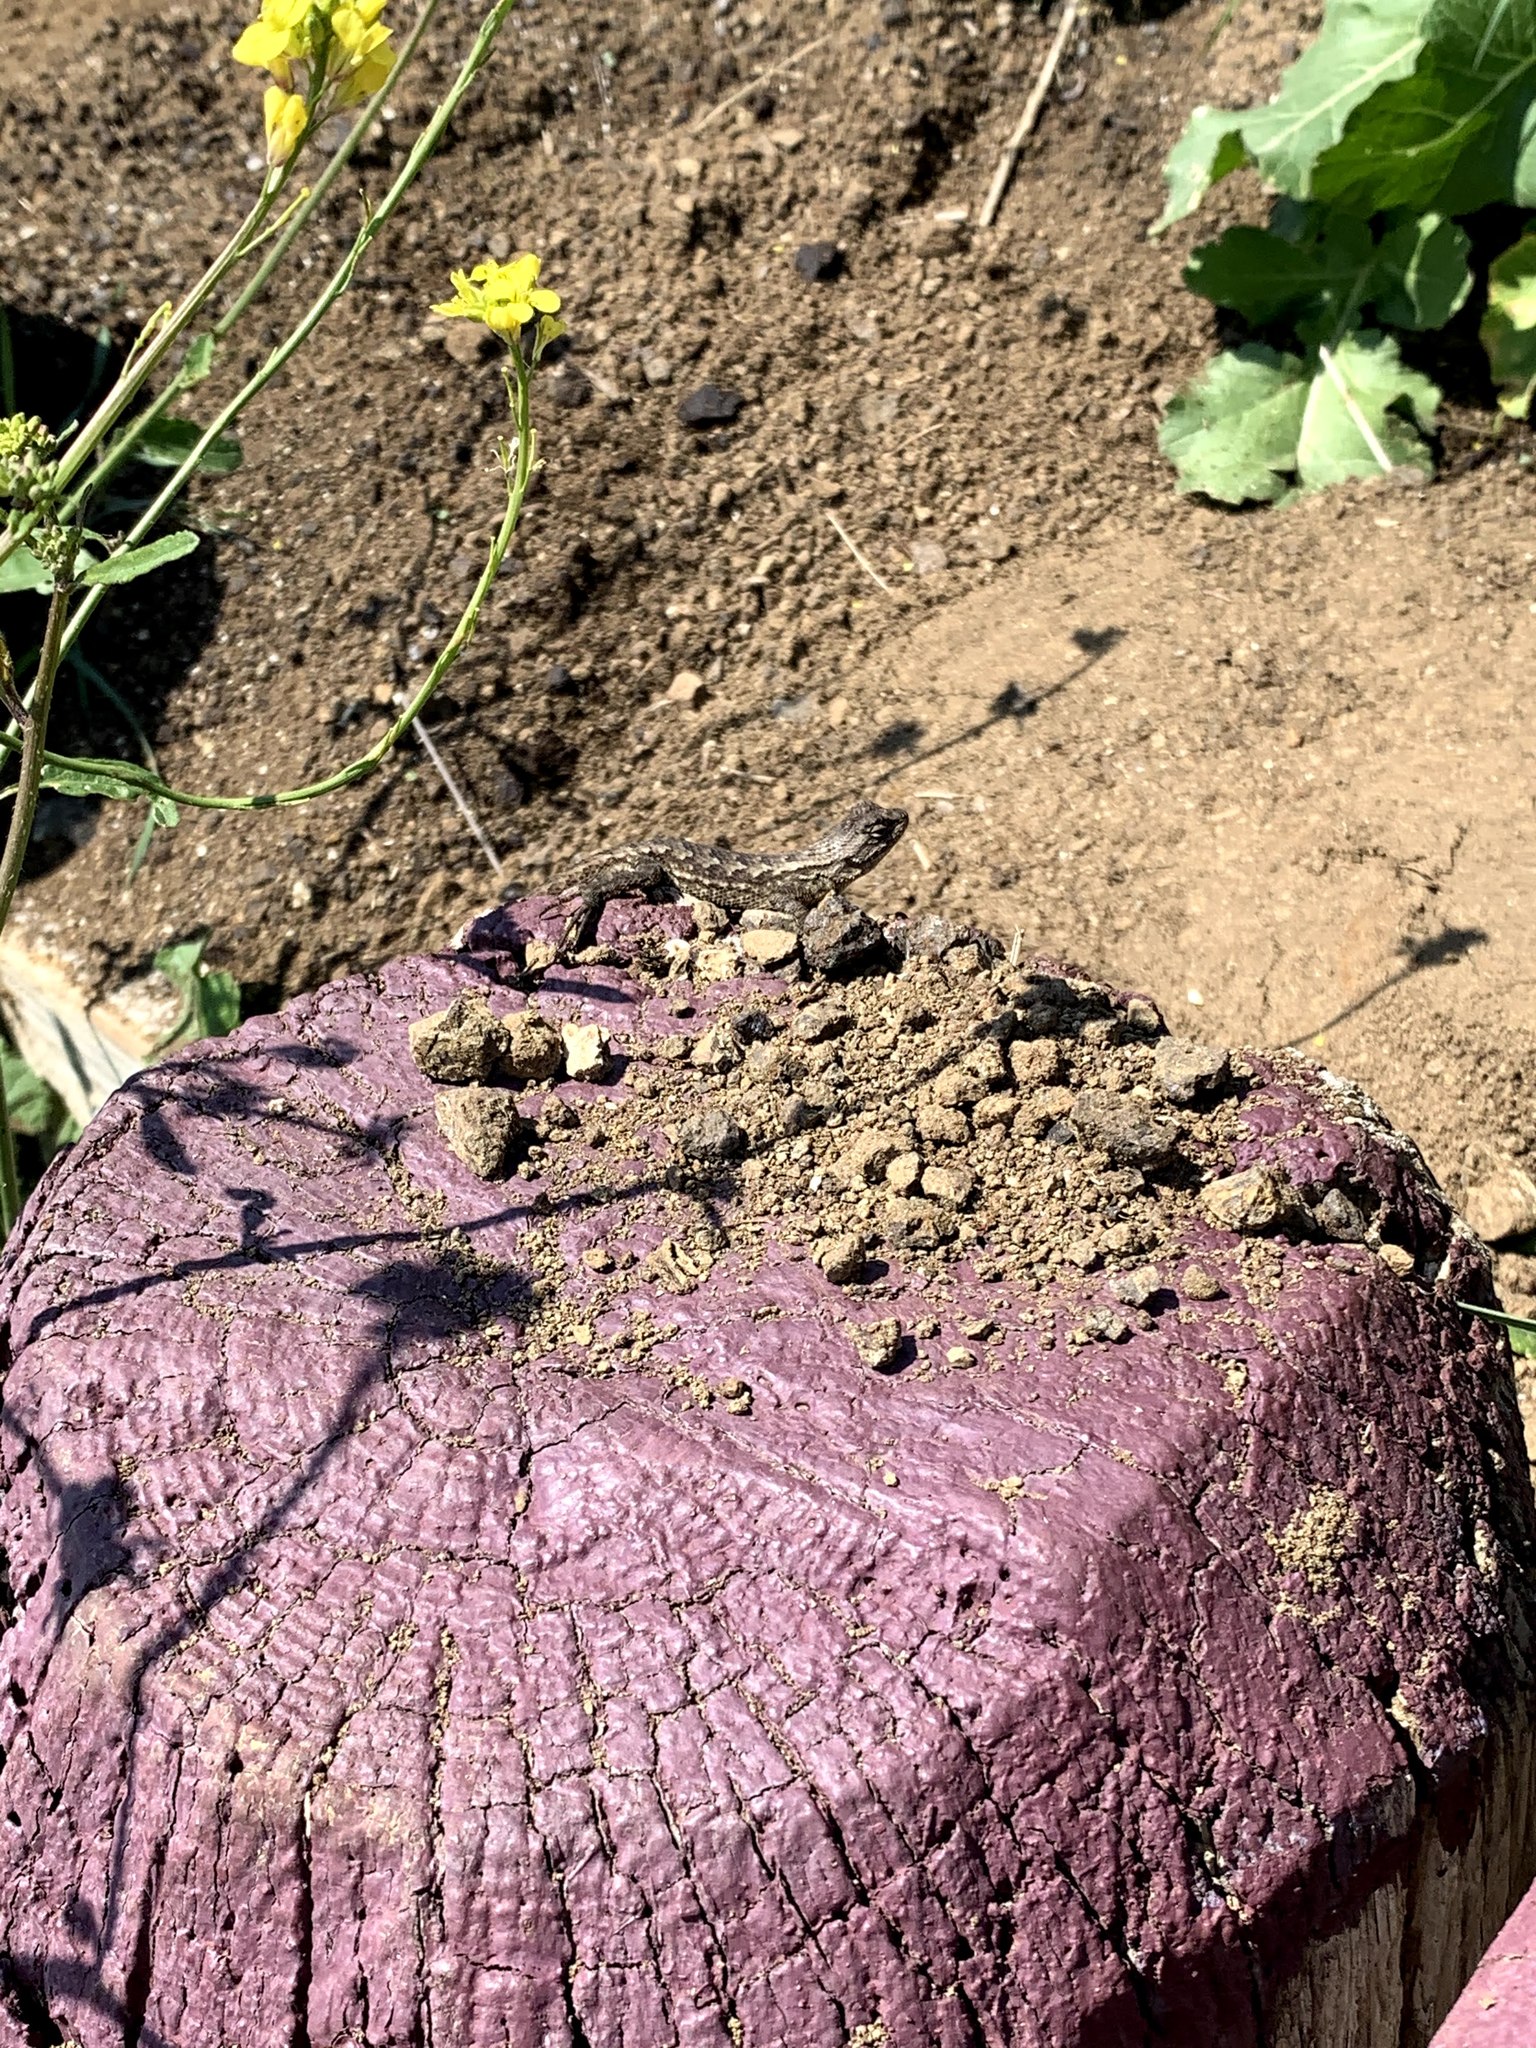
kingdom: Animalia
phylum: Chordata
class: Squamata
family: Phrynosomatidae
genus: Sceloporus
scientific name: Sceloporus occidentalis
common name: Western fence lizard
